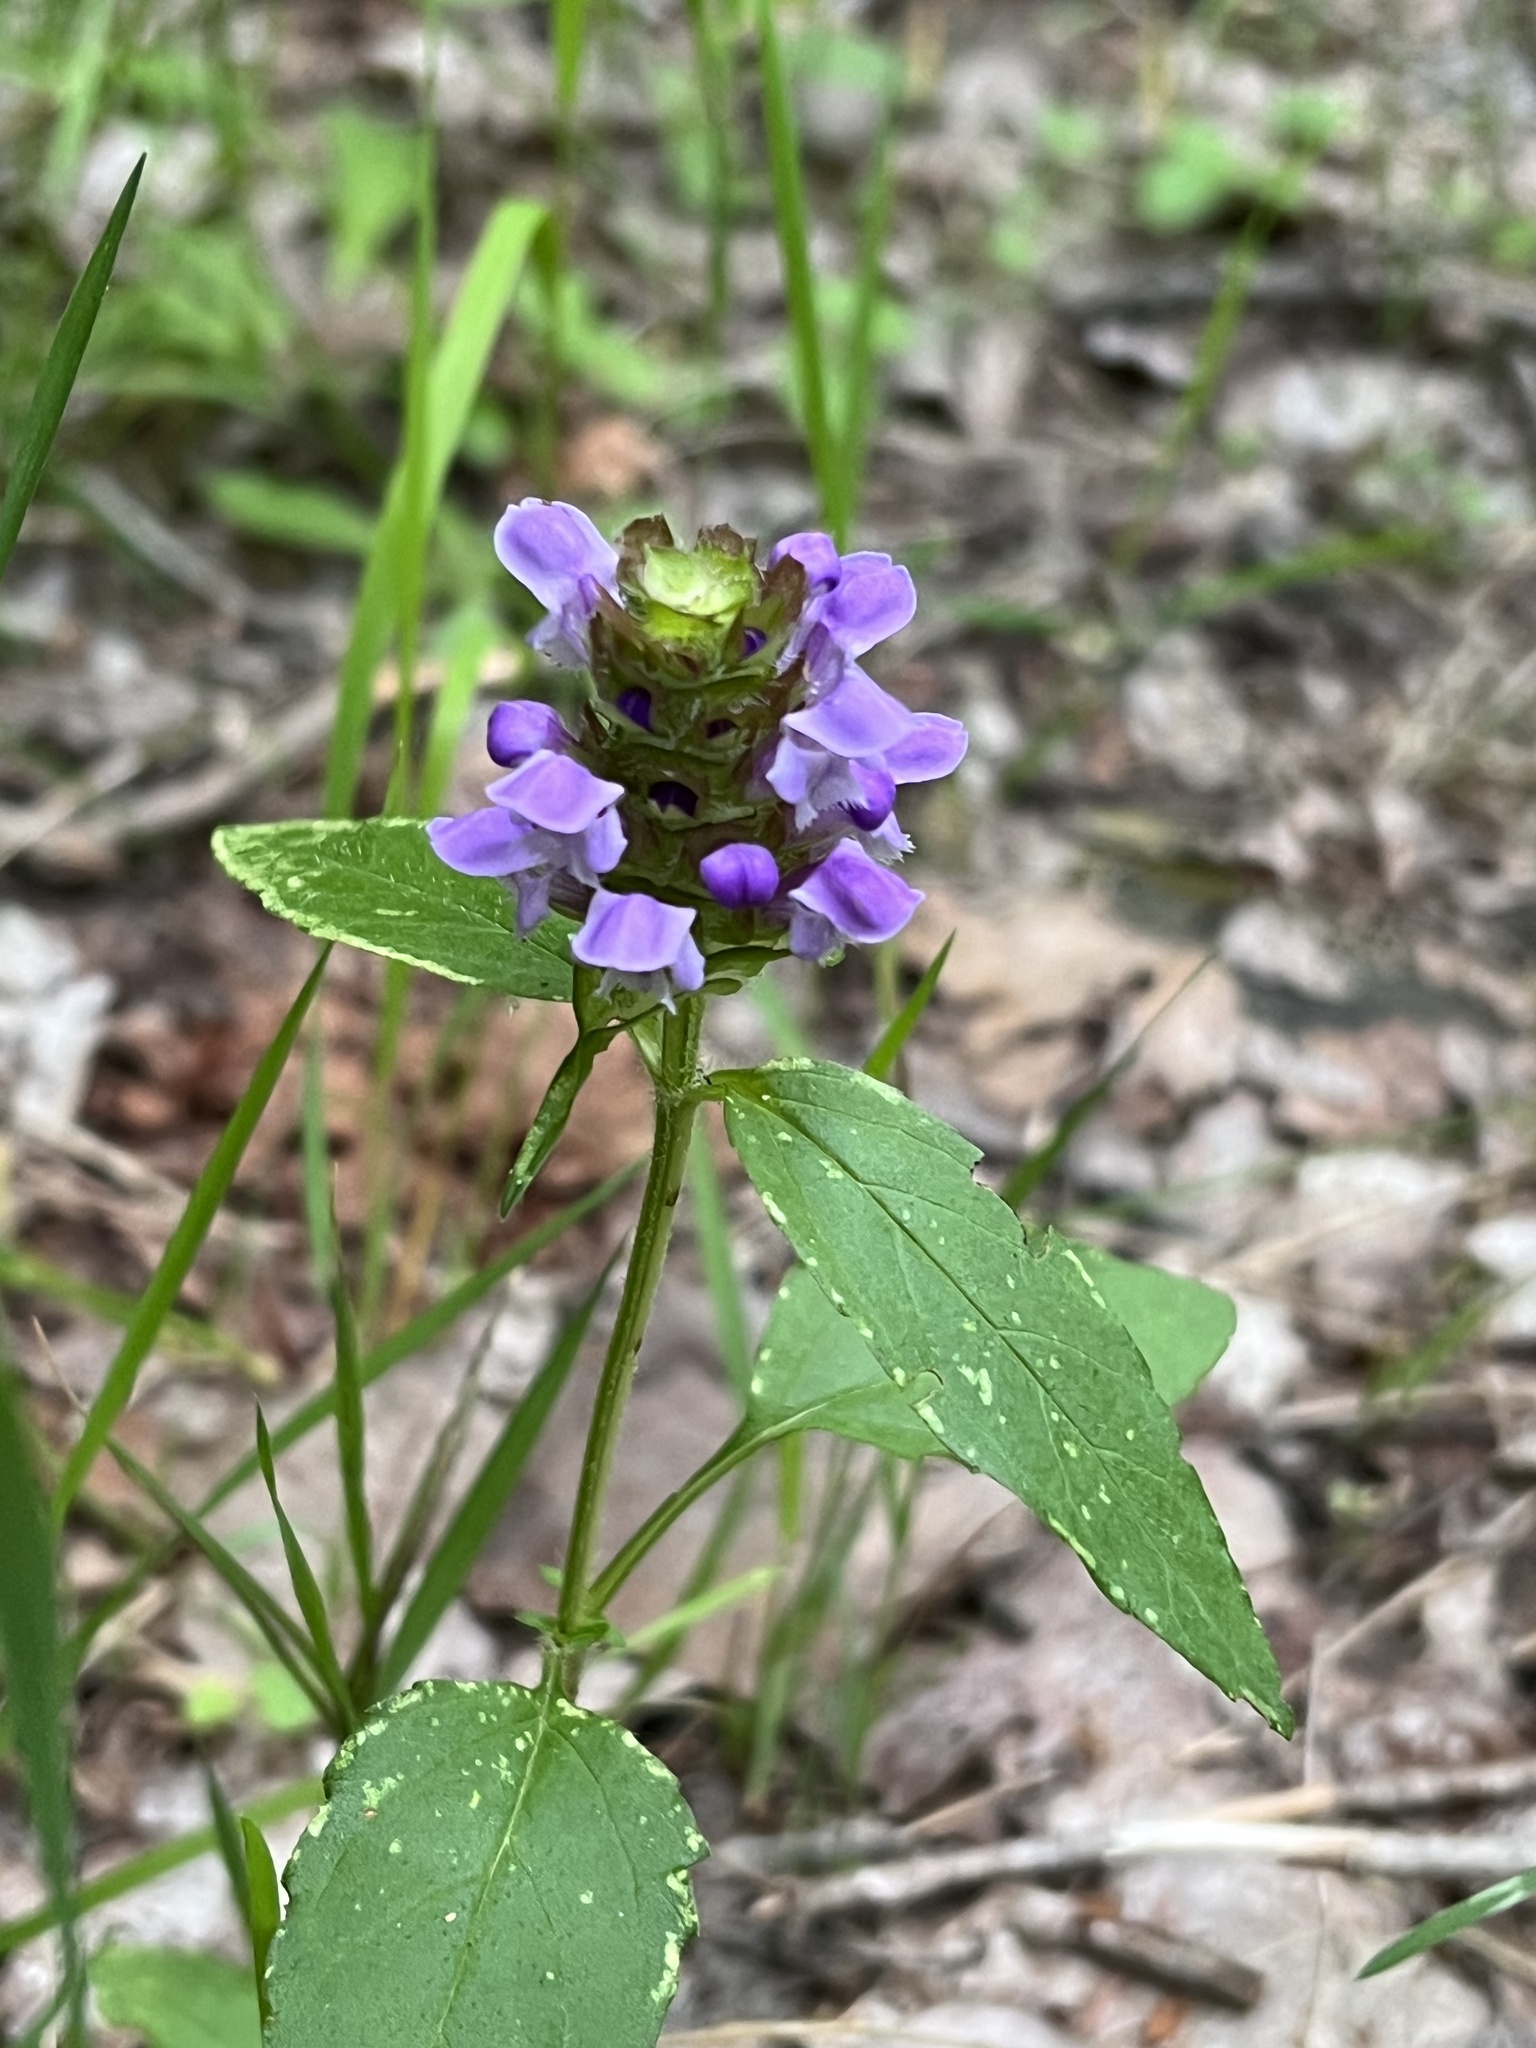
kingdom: Plantae
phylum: Tracheophyta
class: Magnoliopsida
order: Lamiales
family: Lamiaceae
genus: Prunella
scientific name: Prunella vulgaris
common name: Heal-all
